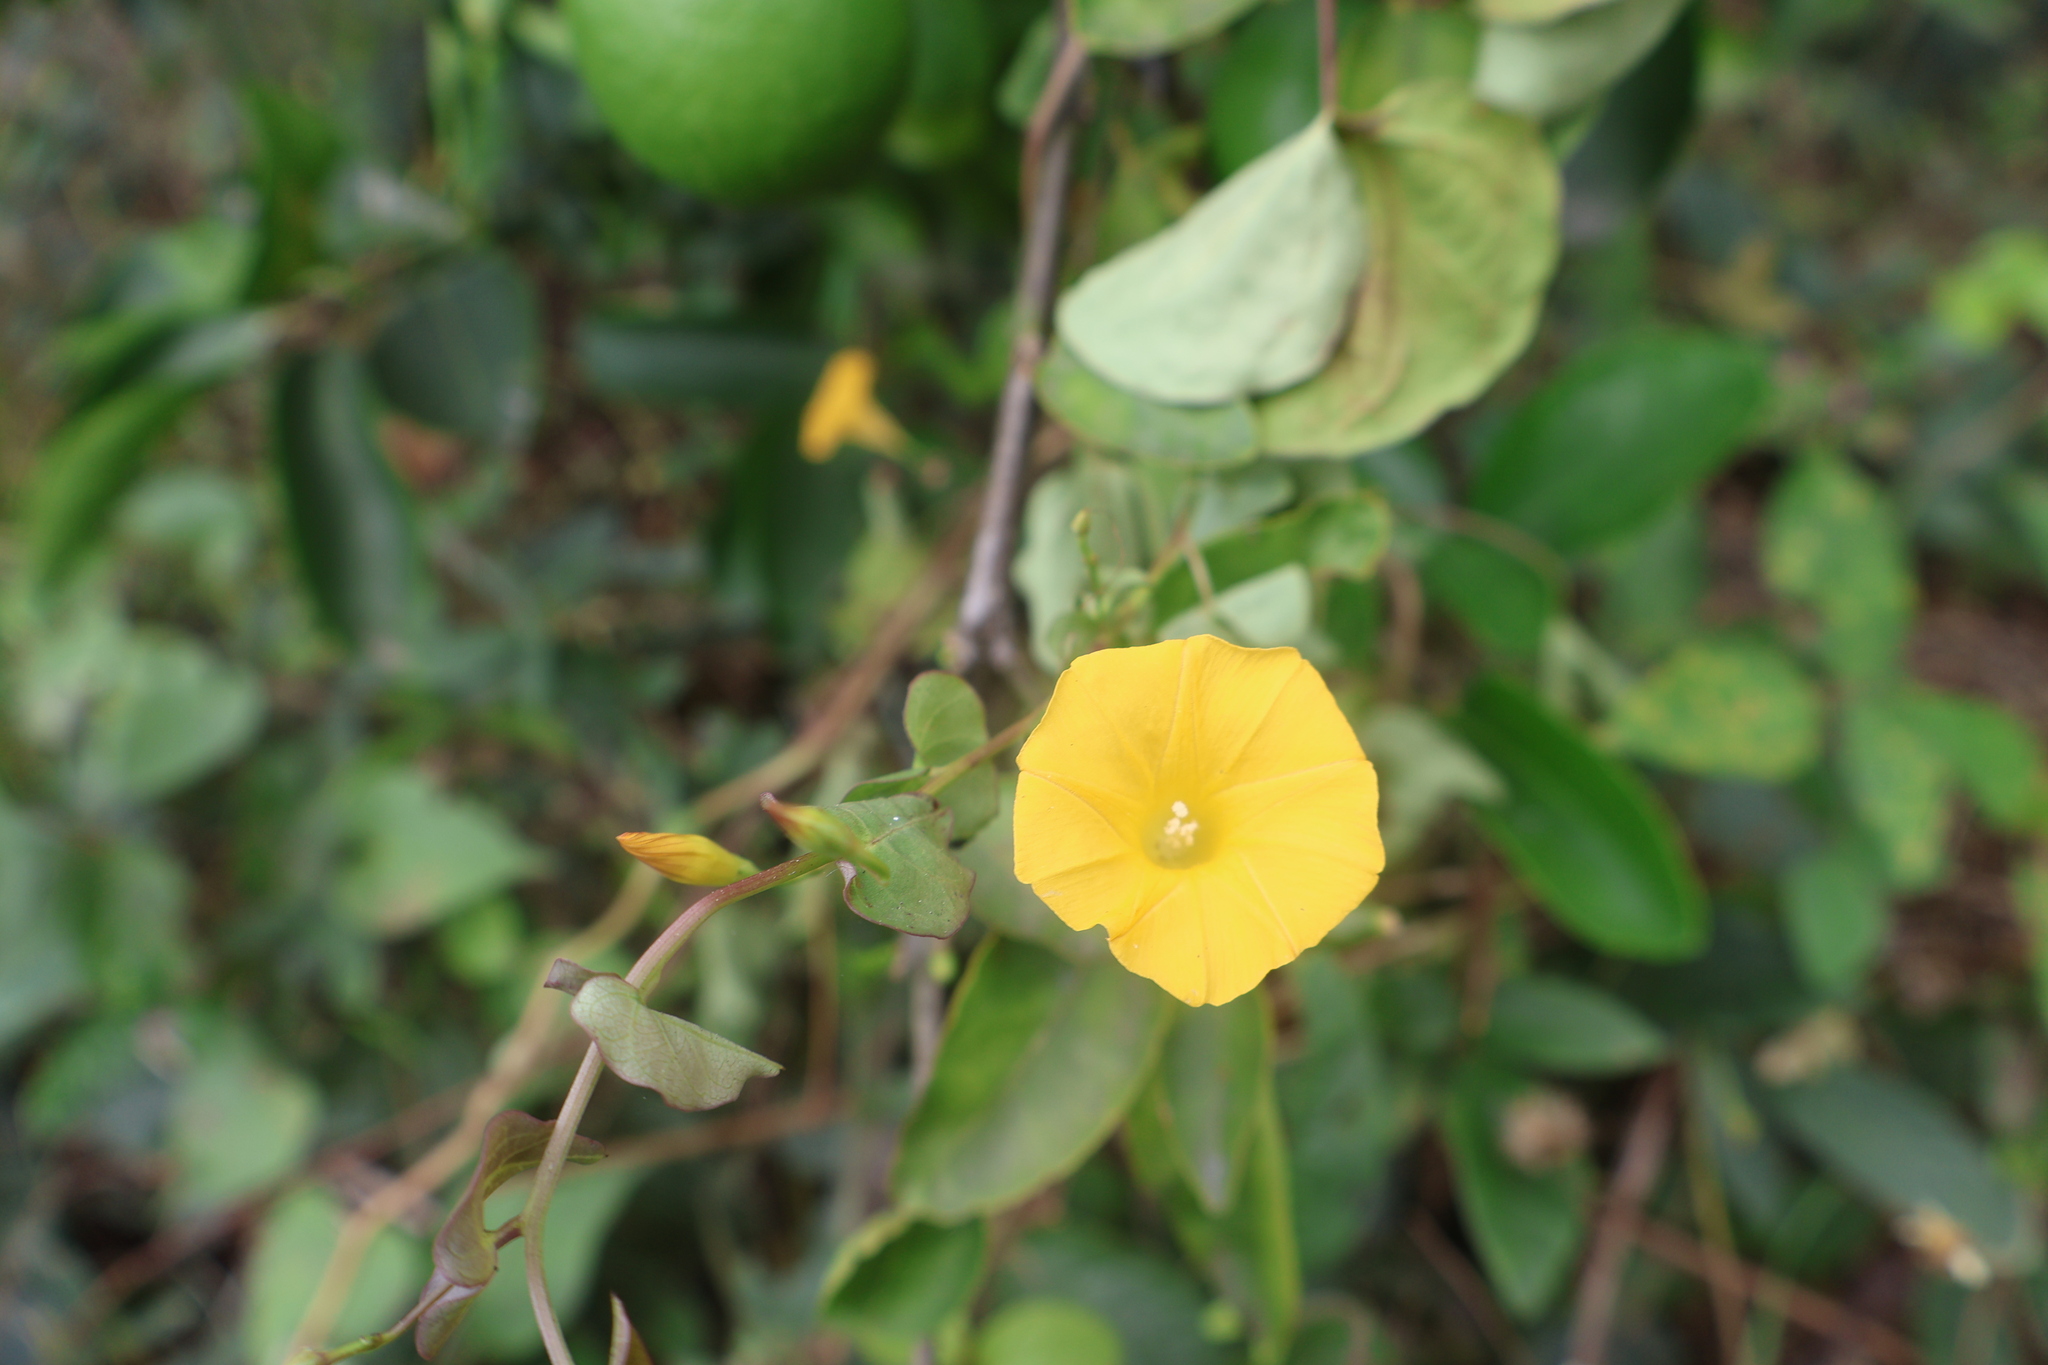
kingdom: Plantae
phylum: Tracheophyta
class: Magnoliopsida
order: Solanales
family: Convolvulaceae
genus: Ipomoea
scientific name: Ipomoea microsepala
